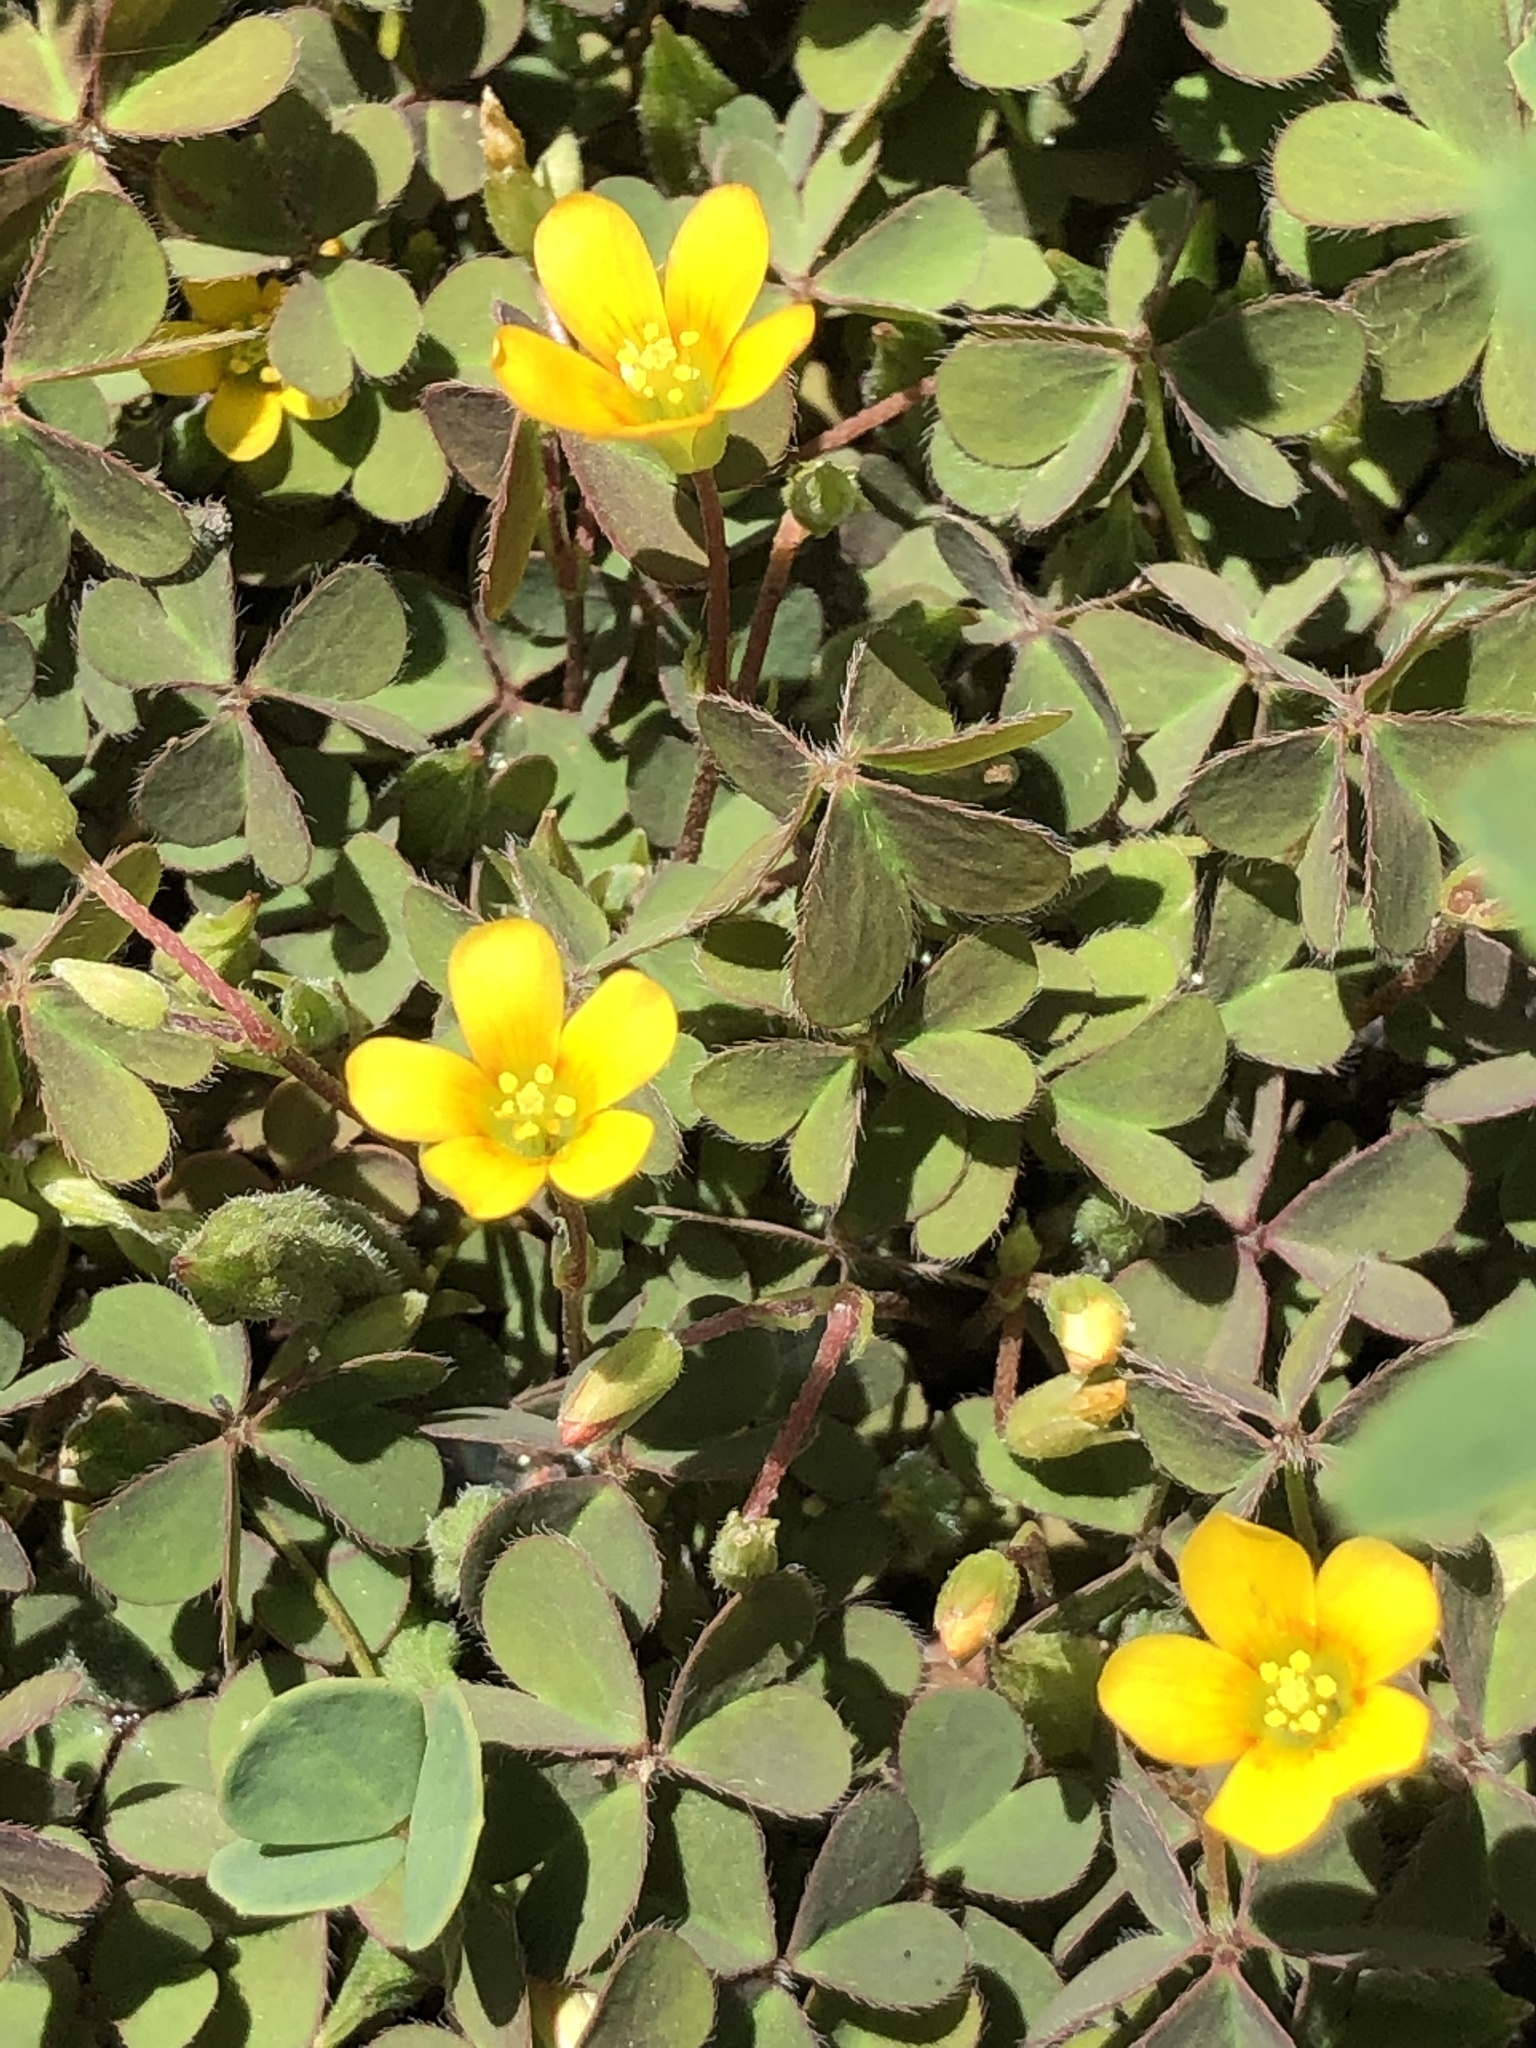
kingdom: Plantae
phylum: Tracheophyta
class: Magnoliopsida
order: Oxalidales
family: Oxalidaceae
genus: Oxalis
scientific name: Oxalis corniculata
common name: Procumbent yellow-sorrel
